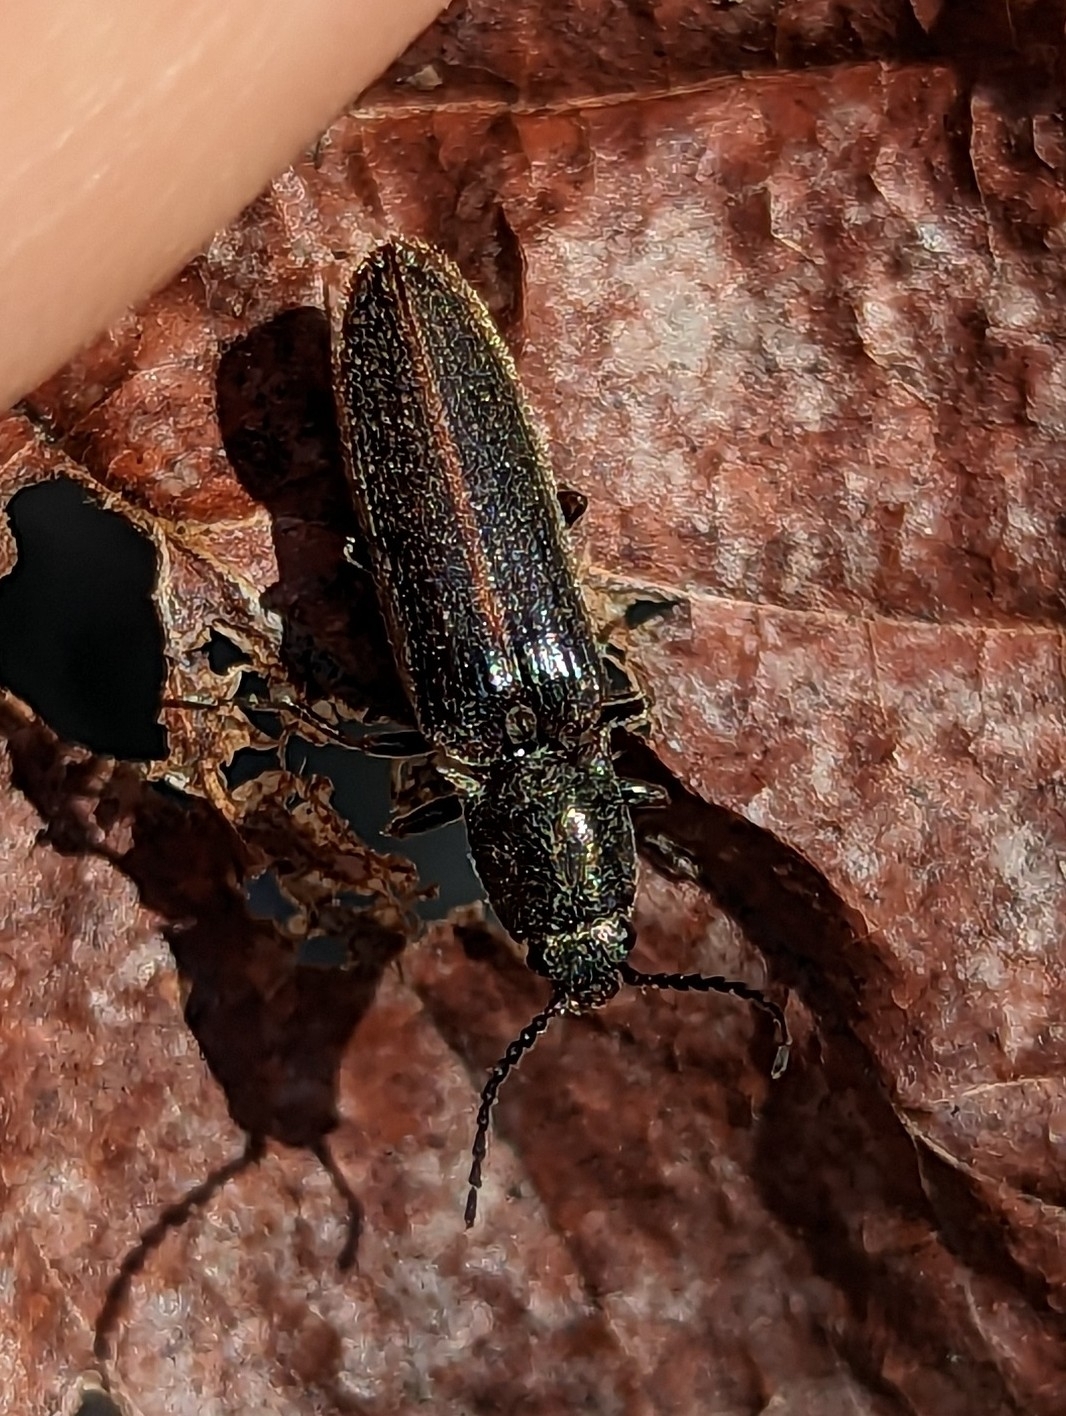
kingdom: Animalia
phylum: Arthropoda
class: Insecta
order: Coleoptera
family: Elateridae
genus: Sylvanelater
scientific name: Sylvanelater cylindriformis
